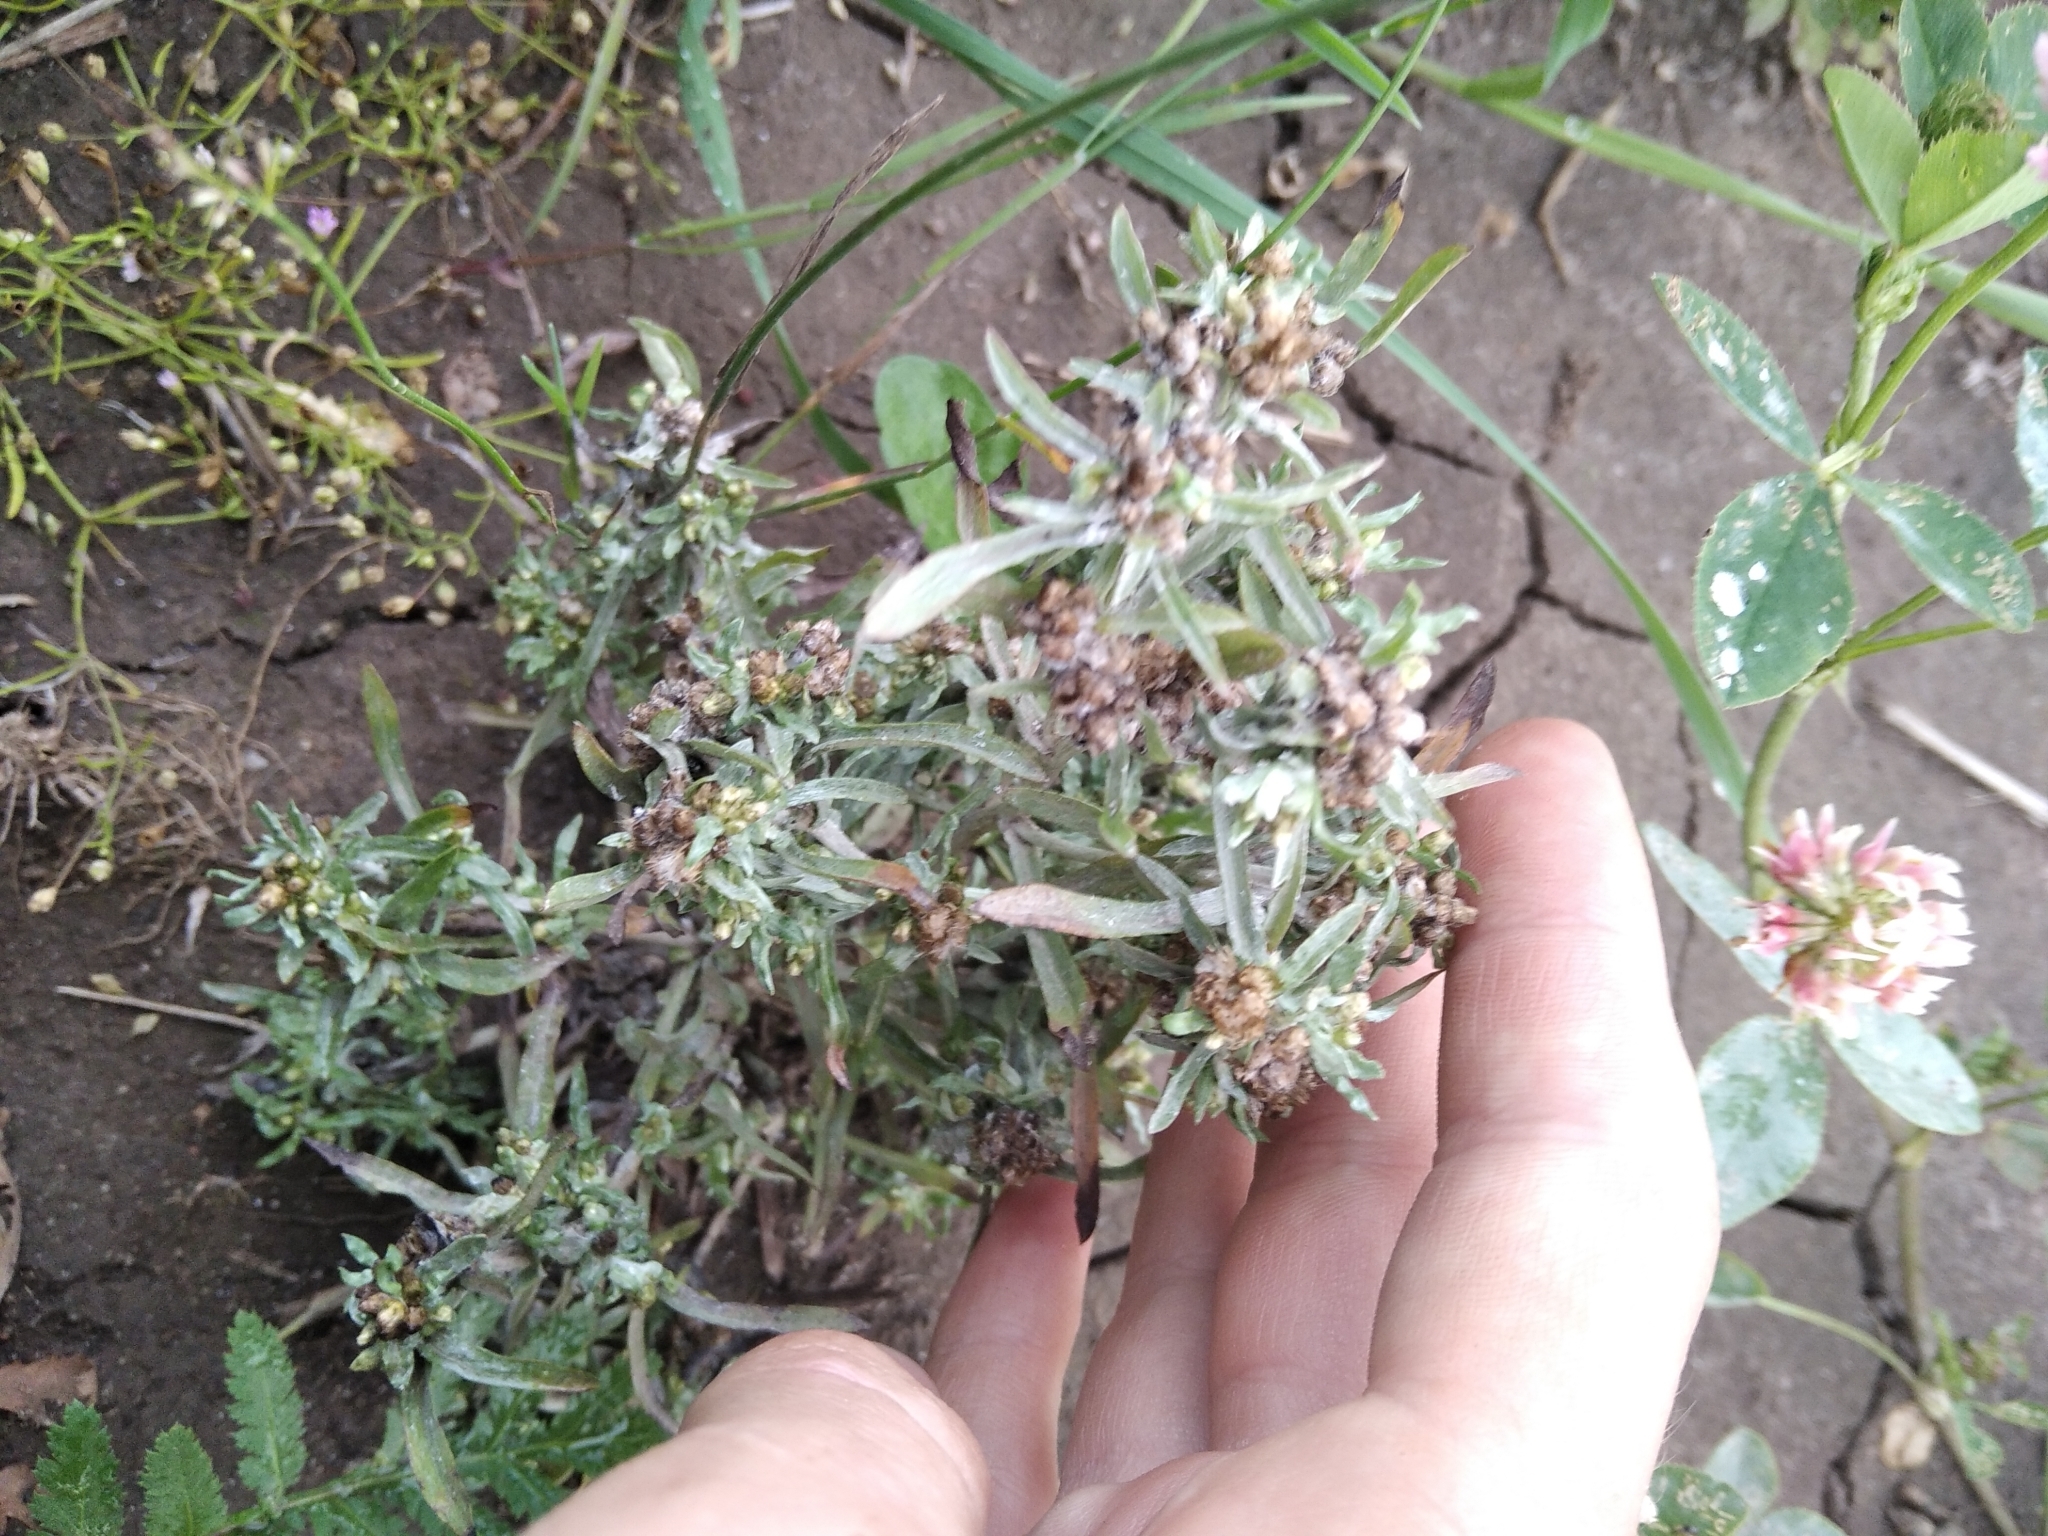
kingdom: Plantae
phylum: Tracheophyta
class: Magnoliopsida
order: Asterales
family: Asteraceae
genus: Gnaphalium
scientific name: Gnaphalium uliginosum
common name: Marsh cudweed
